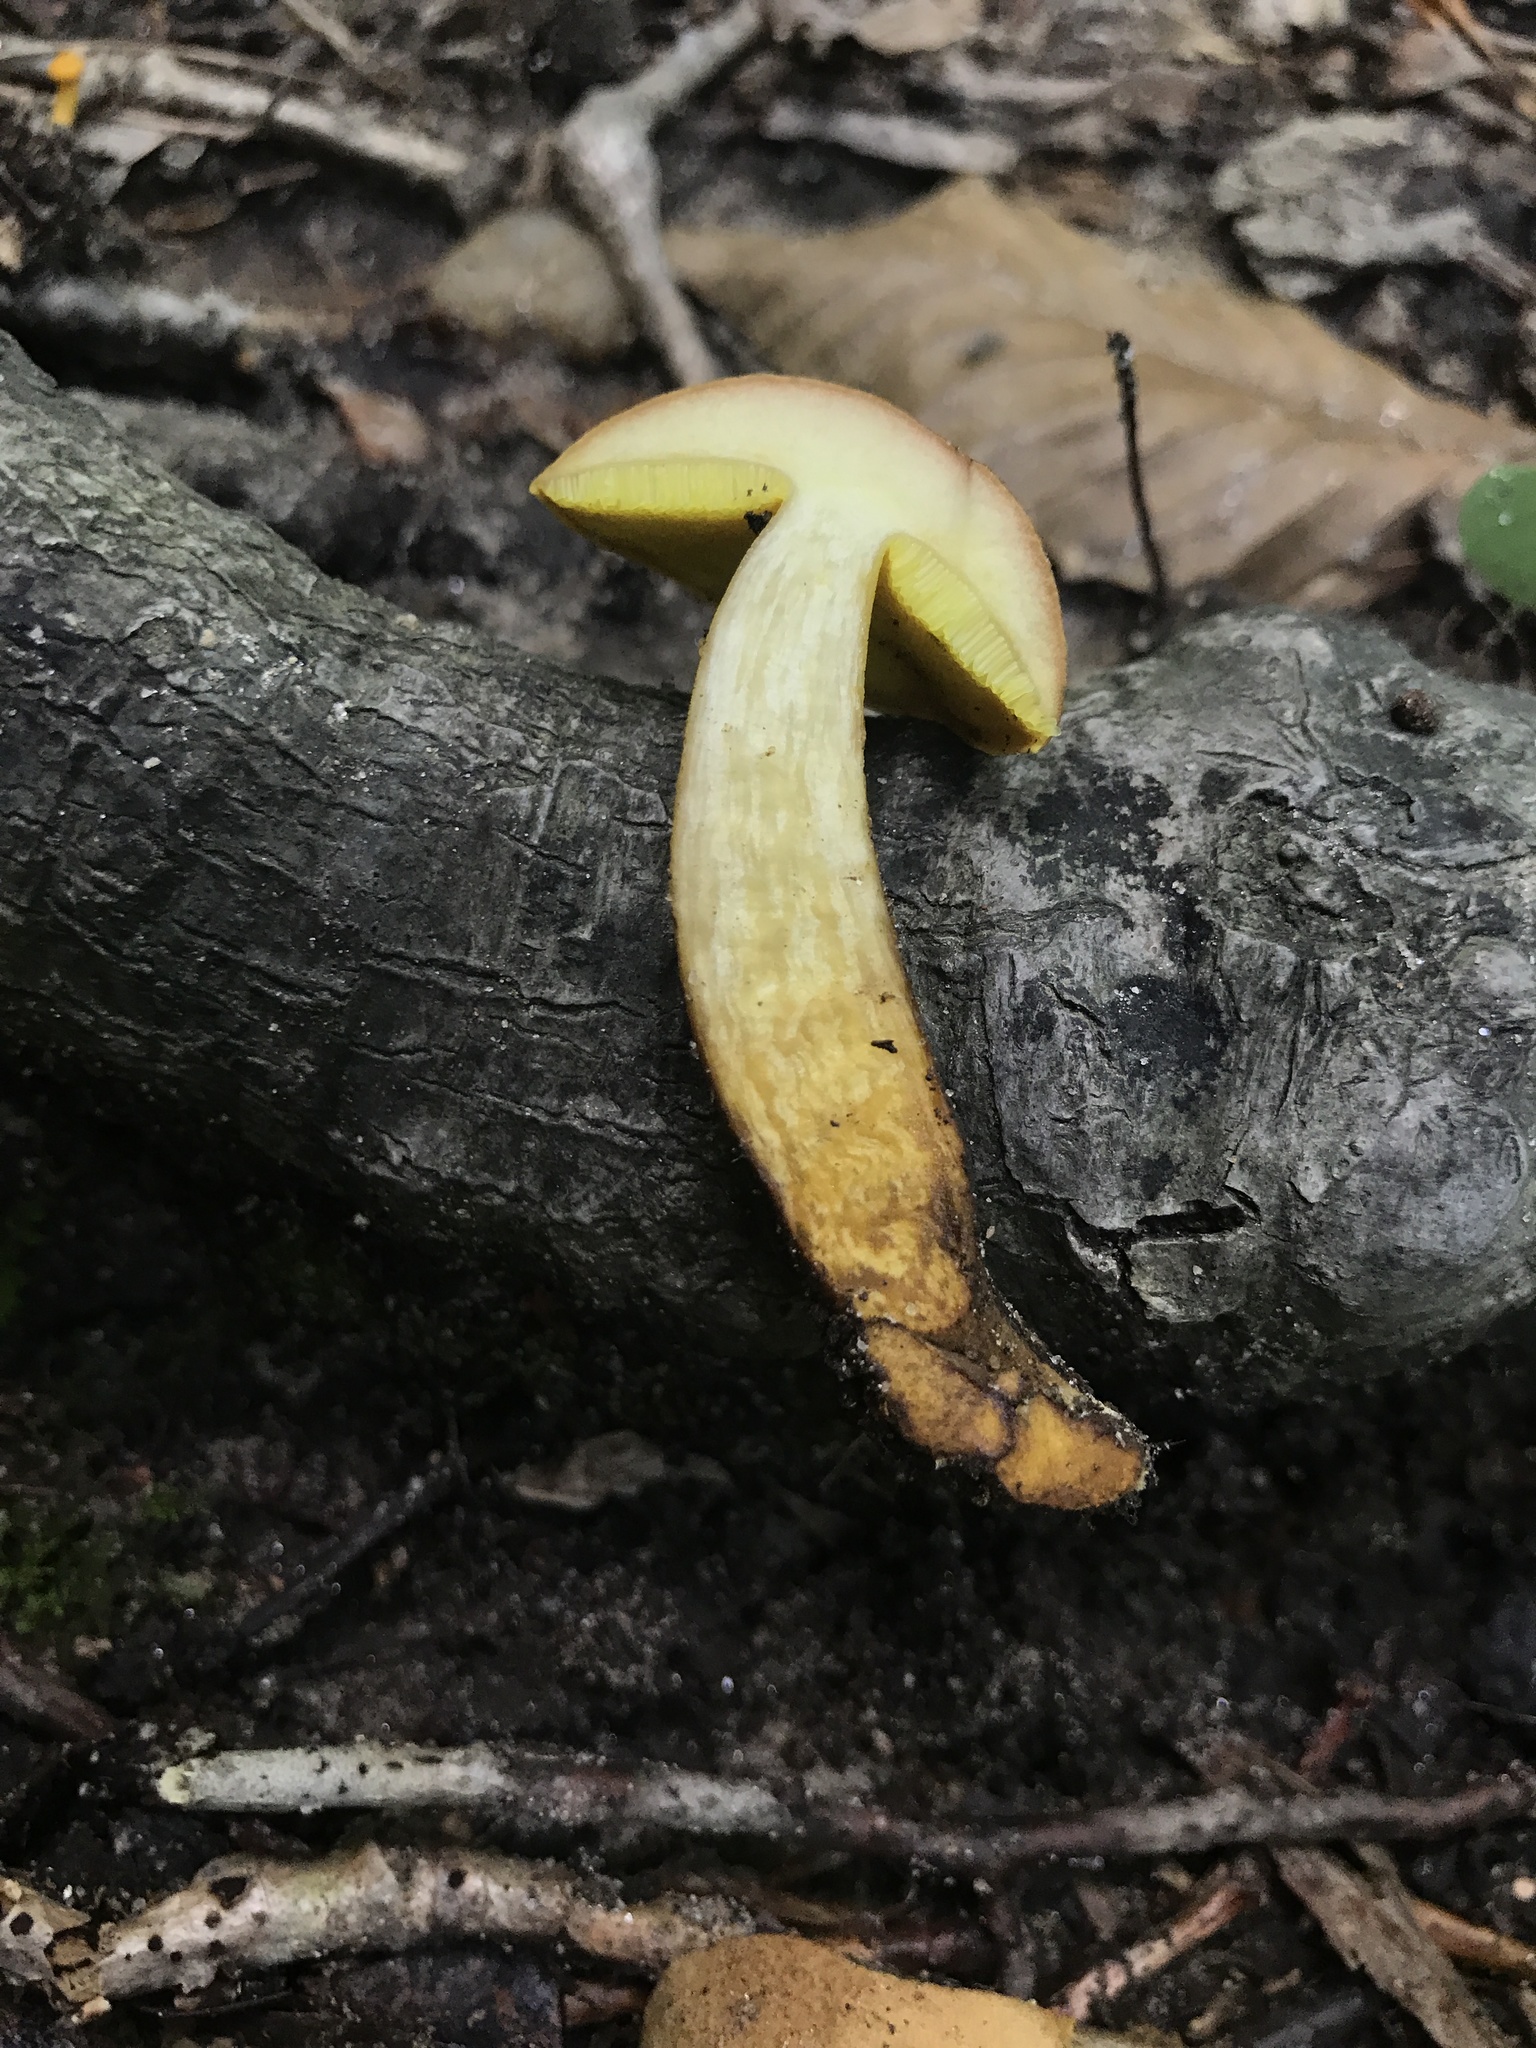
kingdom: Fungi
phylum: Basidiomycota
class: Agaricomycetes
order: Boletales
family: Boletaceae
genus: Aureoboletus
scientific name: Aureoboletus innixus
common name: Clustered brown bolete
